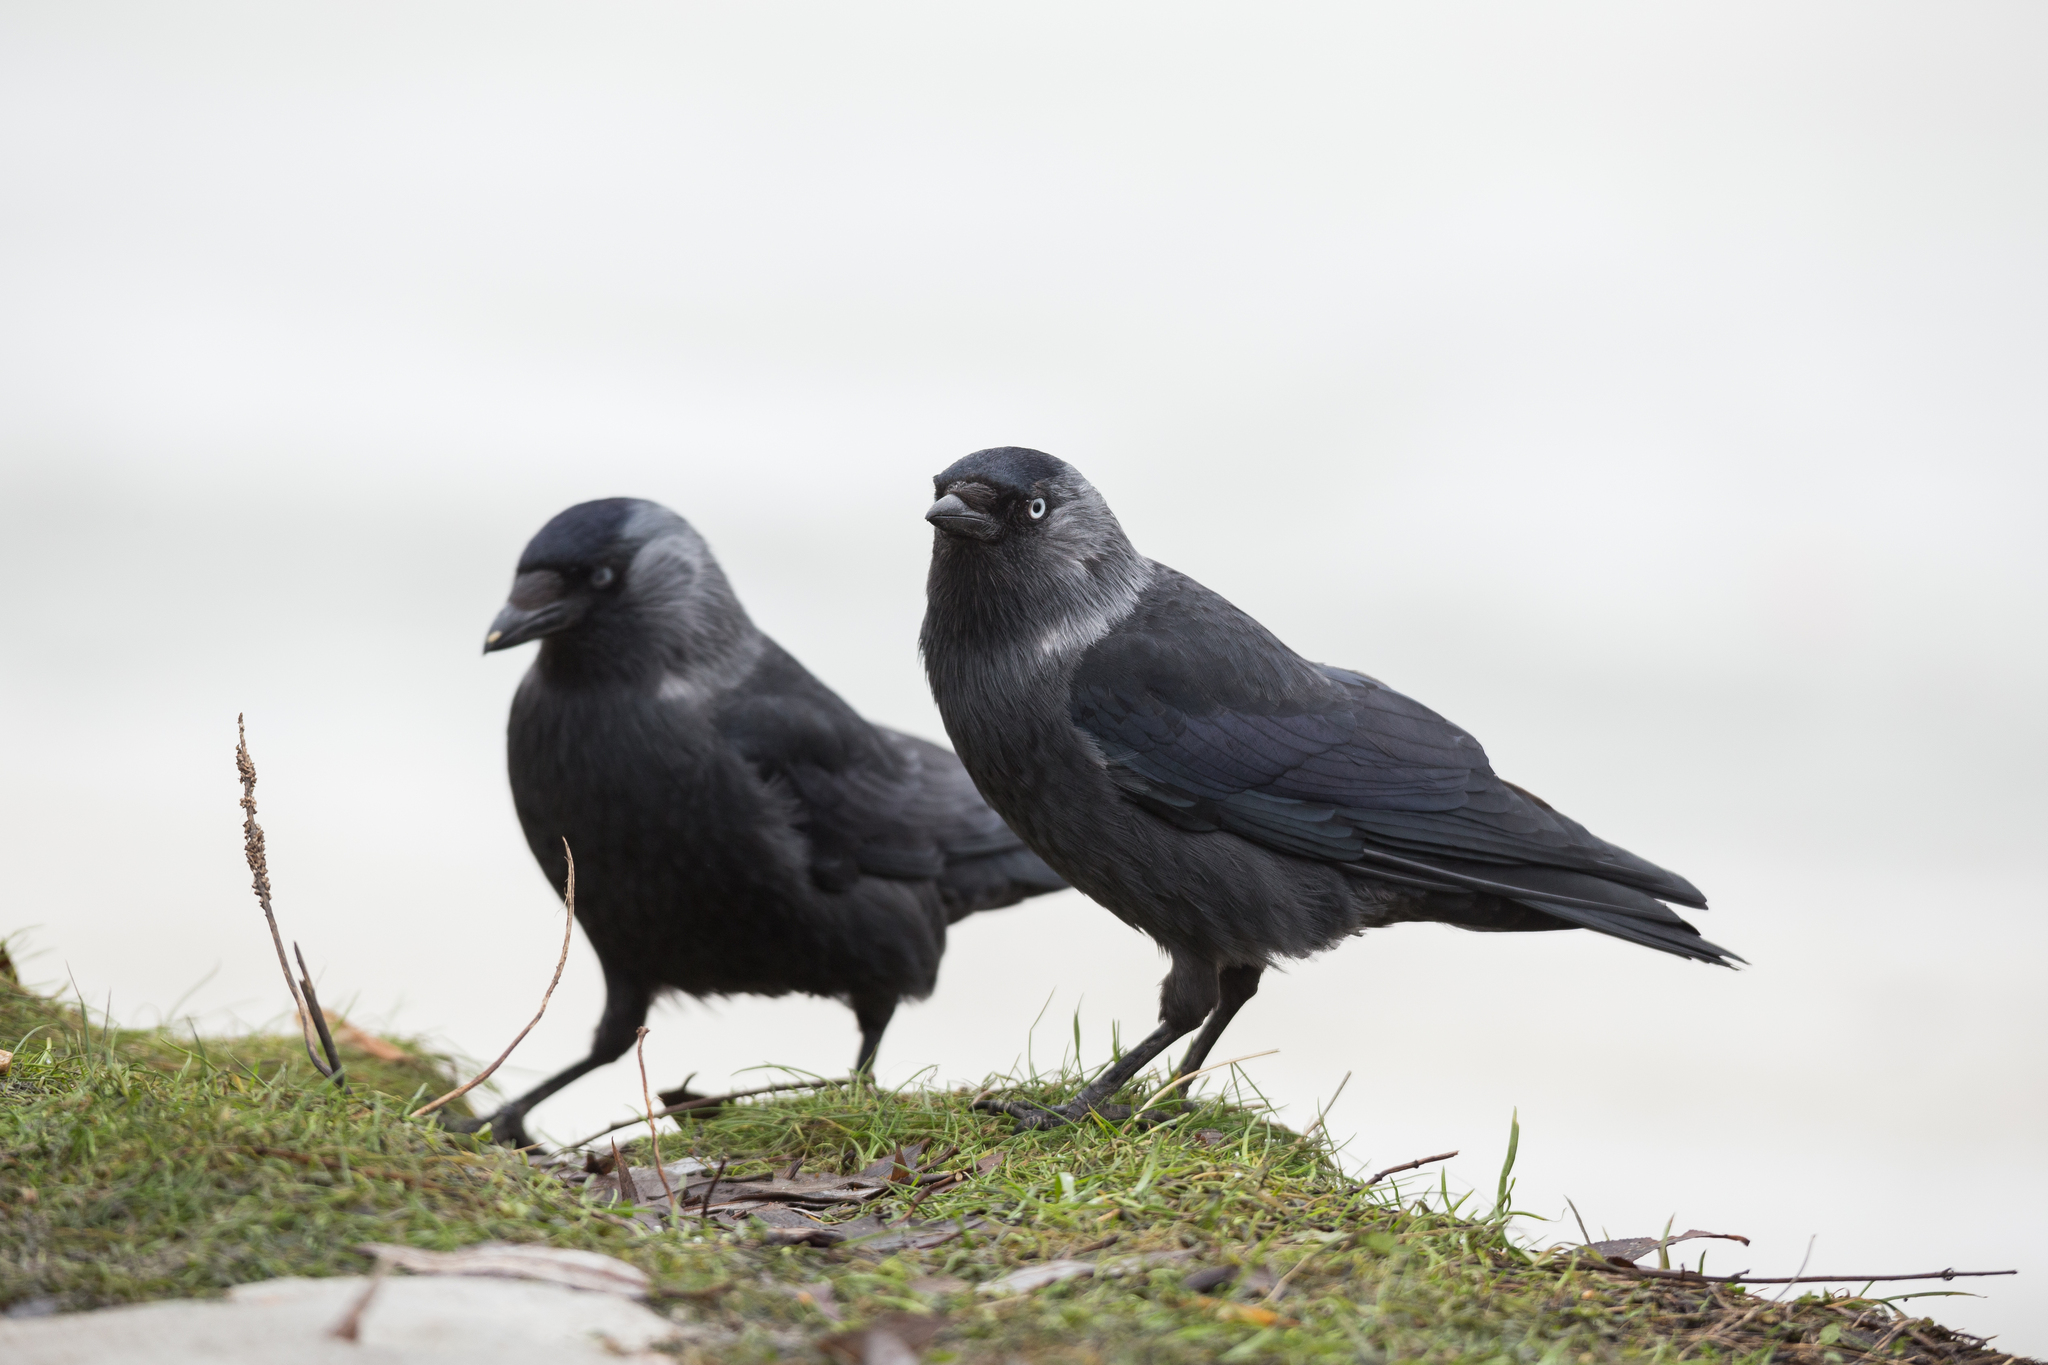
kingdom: Animalia
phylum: Chordata
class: Aves
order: Passeriformes
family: Corvidae
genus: Coloeus
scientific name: Coloeus monedula
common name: Western jackdaw
